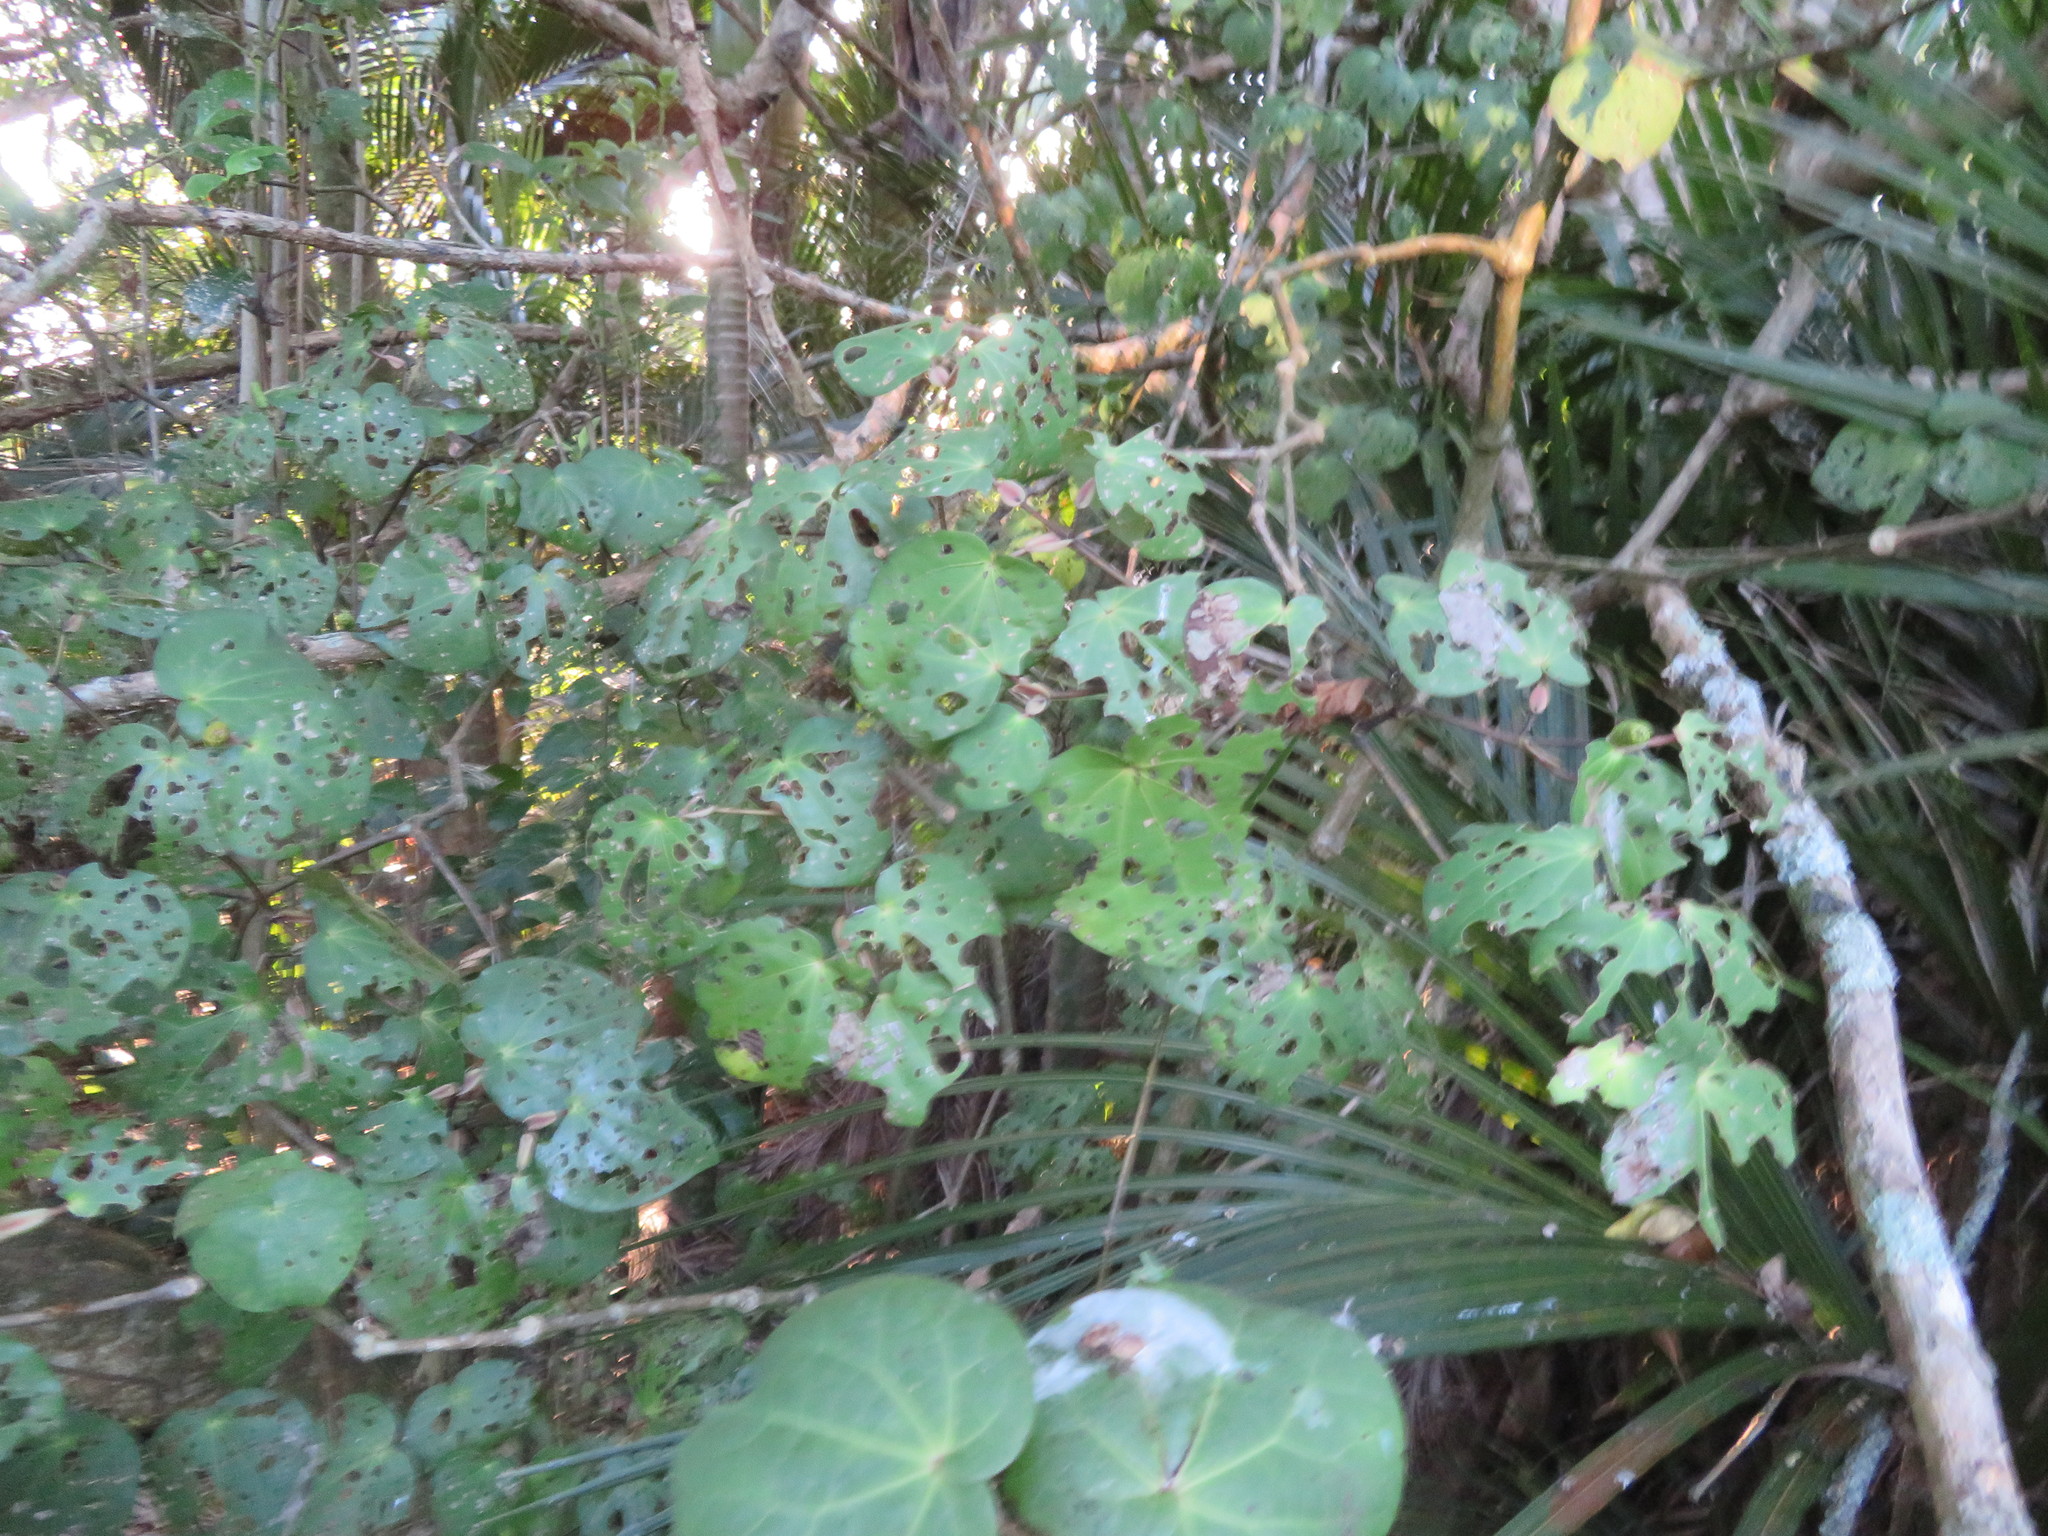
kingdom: Plantae
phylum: Tracheophyta
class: Magnoliopsida
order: Piperales
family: Piperaceae
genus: Macropiper
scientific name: Macropiper excelsum
